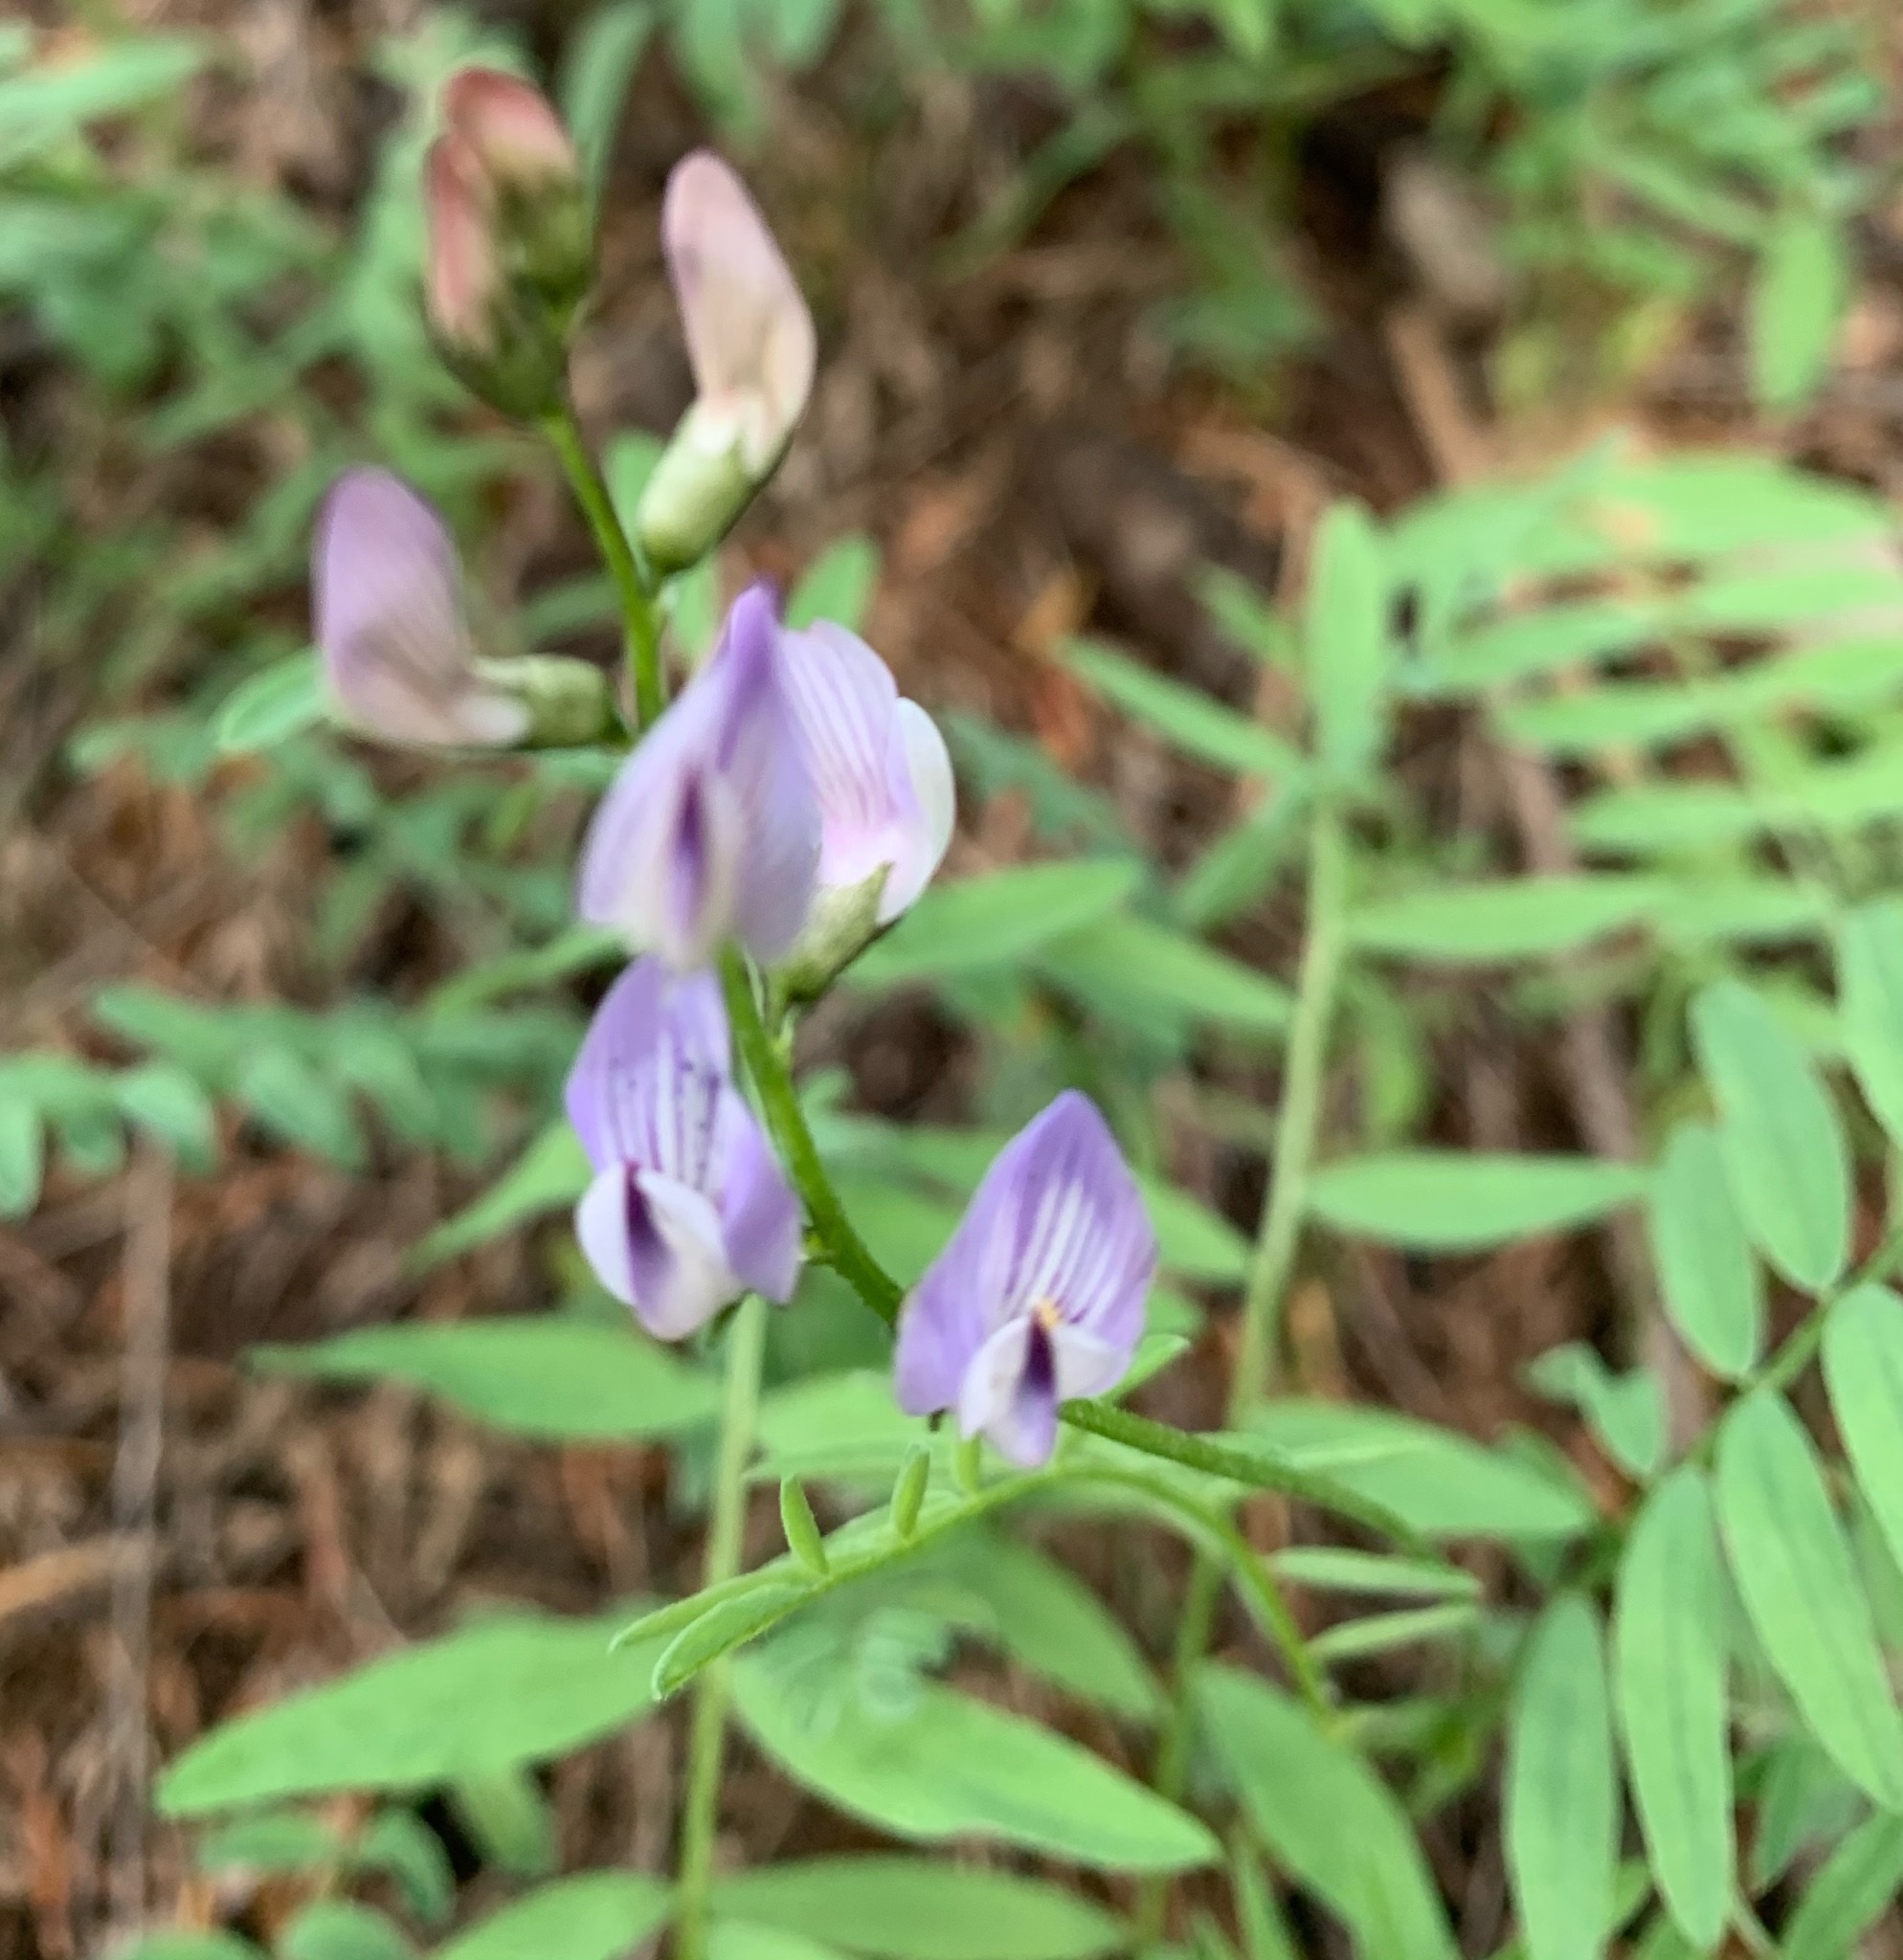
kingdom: Plantae
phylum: Tracheophyta
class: Magnoliopsida
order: Fabales
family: Fabaceae
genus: Astragalus
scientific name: Astragalus miser
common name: Timber milkvetch
